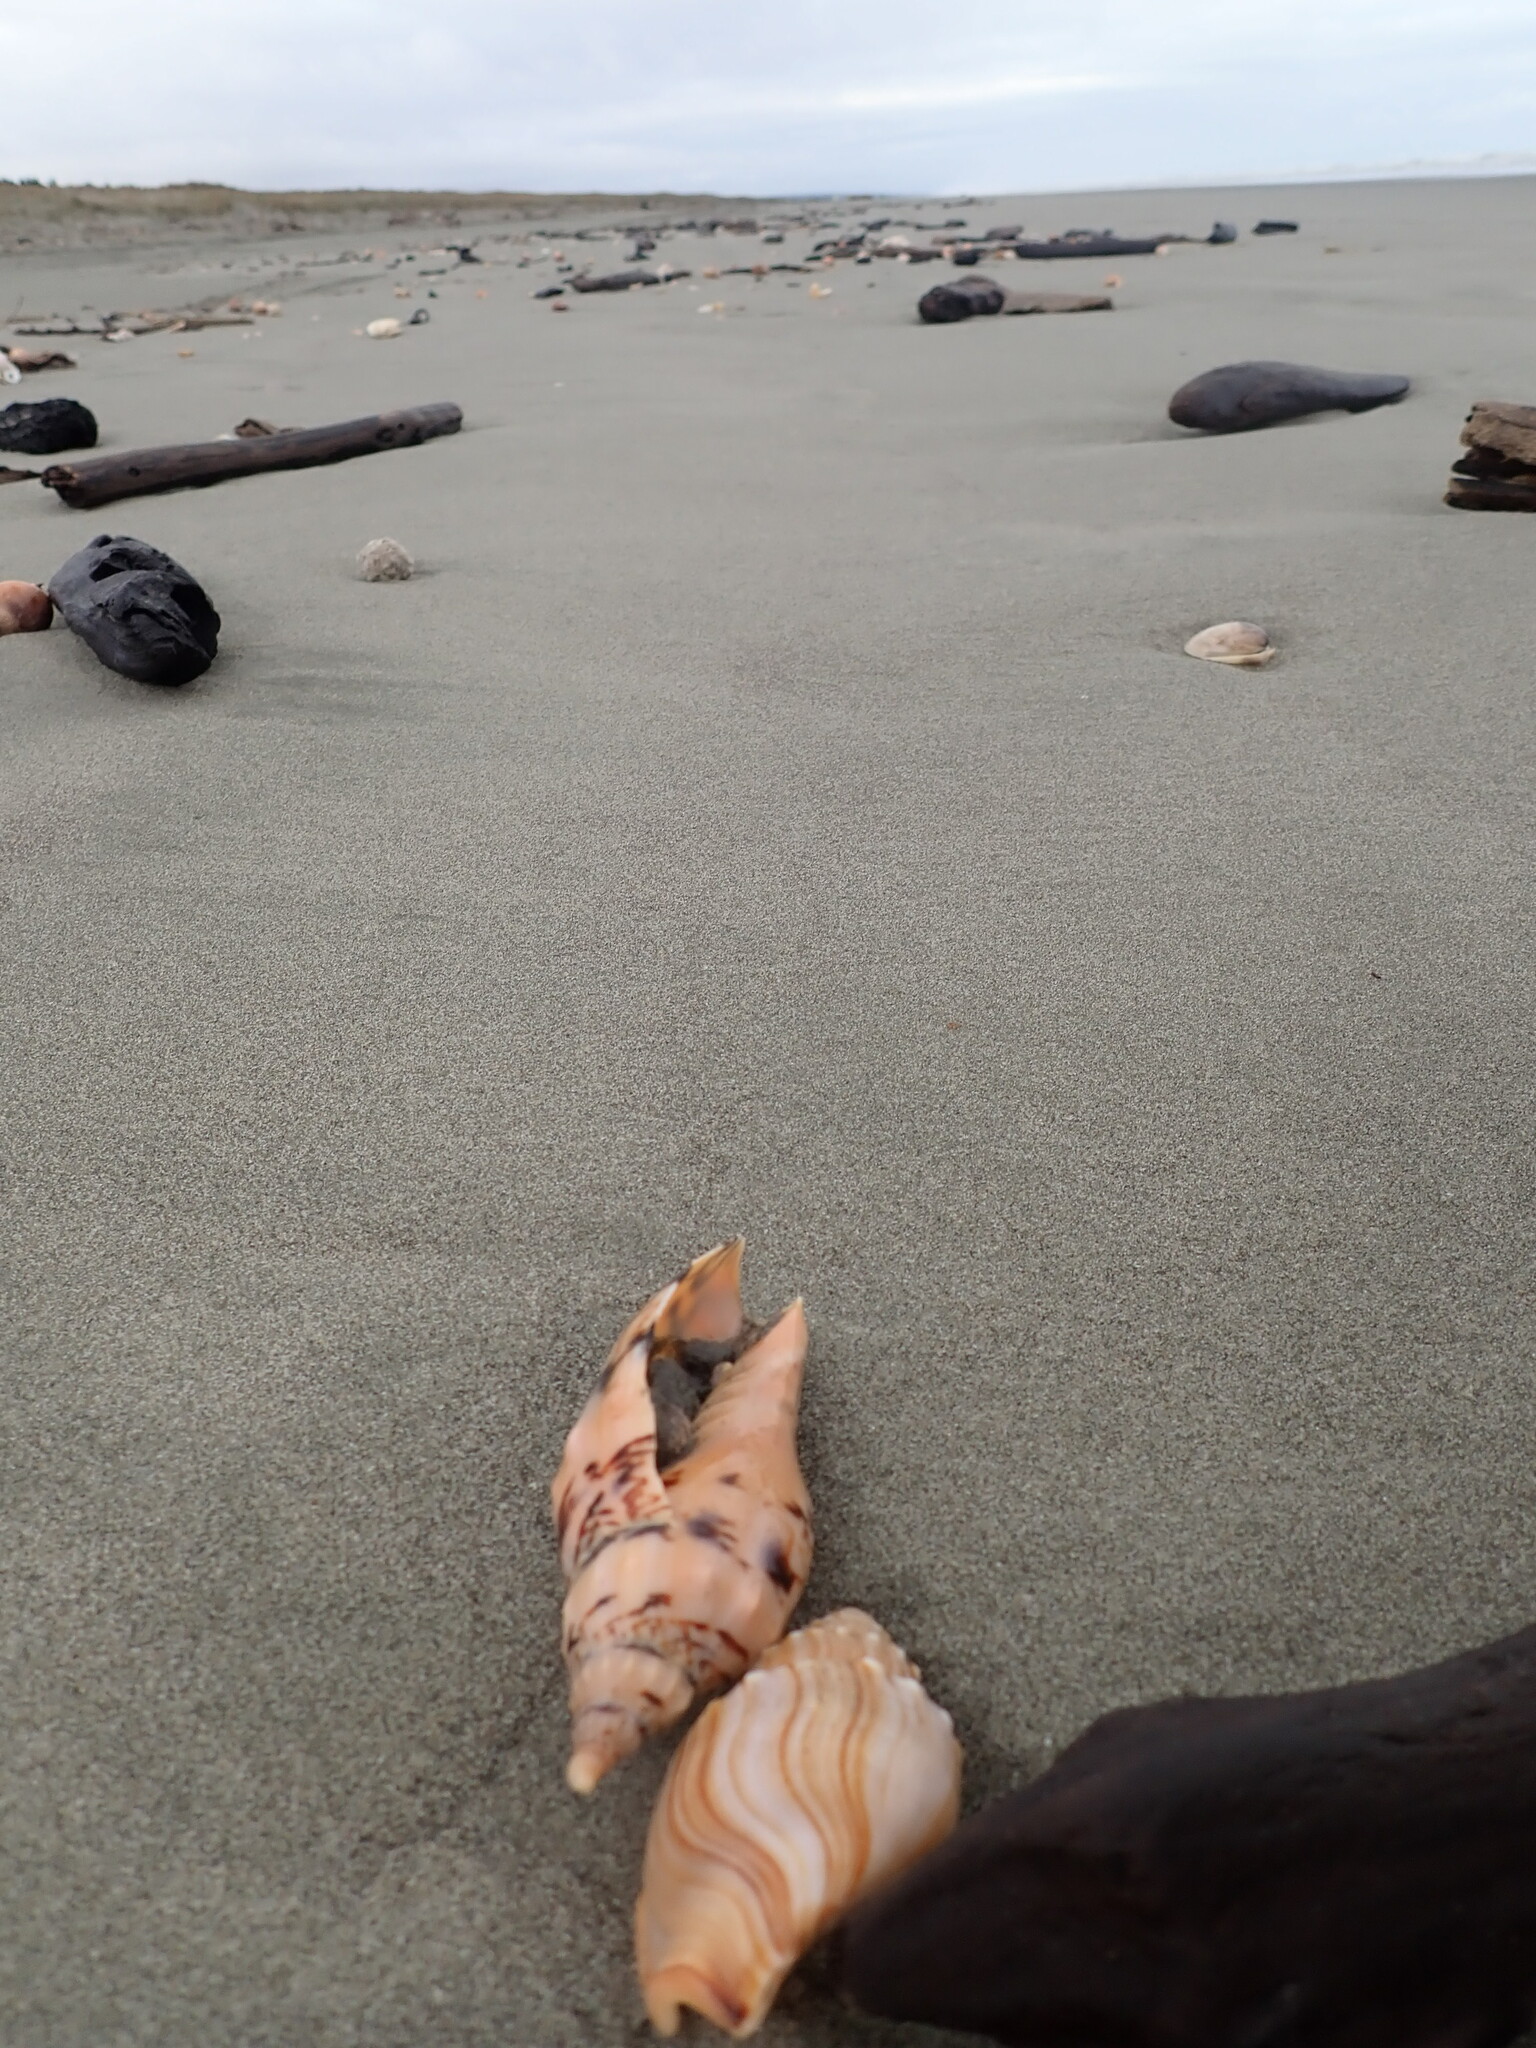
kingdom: Animalia
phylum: Mollusca
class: Gastropoda
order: Neogastropoda
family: Volutidae
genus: Alcithoe
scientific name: Alcithoe arabica
